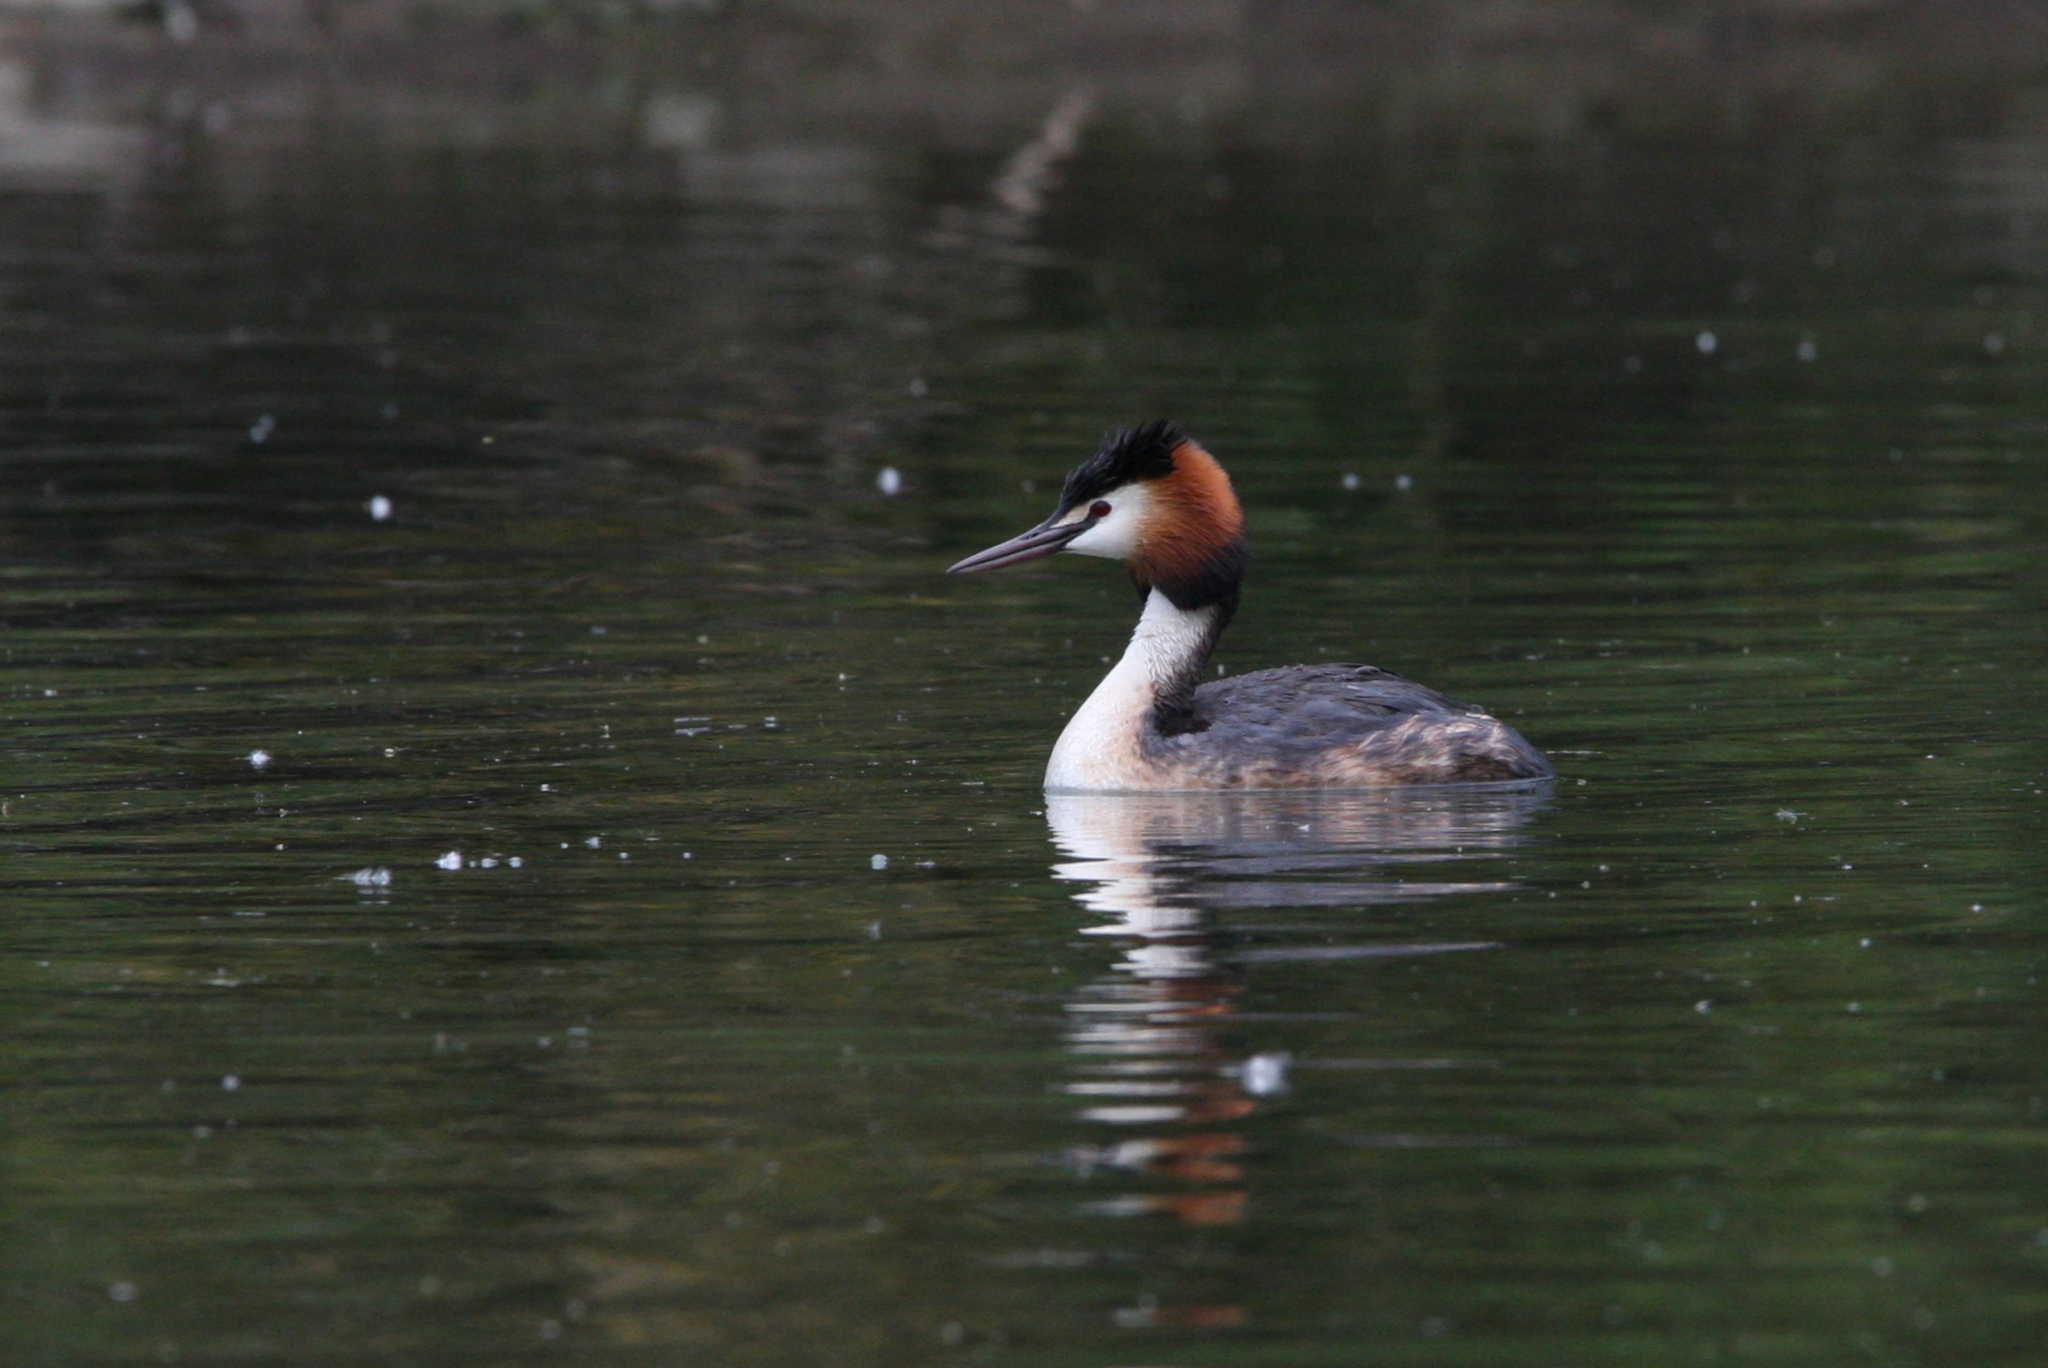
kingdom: Animalia
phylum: Chordata
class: Aves
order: Podicipediformes
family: Podicipedidae
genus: Podiceps
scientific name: Podiceps cristatus
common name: Great crested grebe
